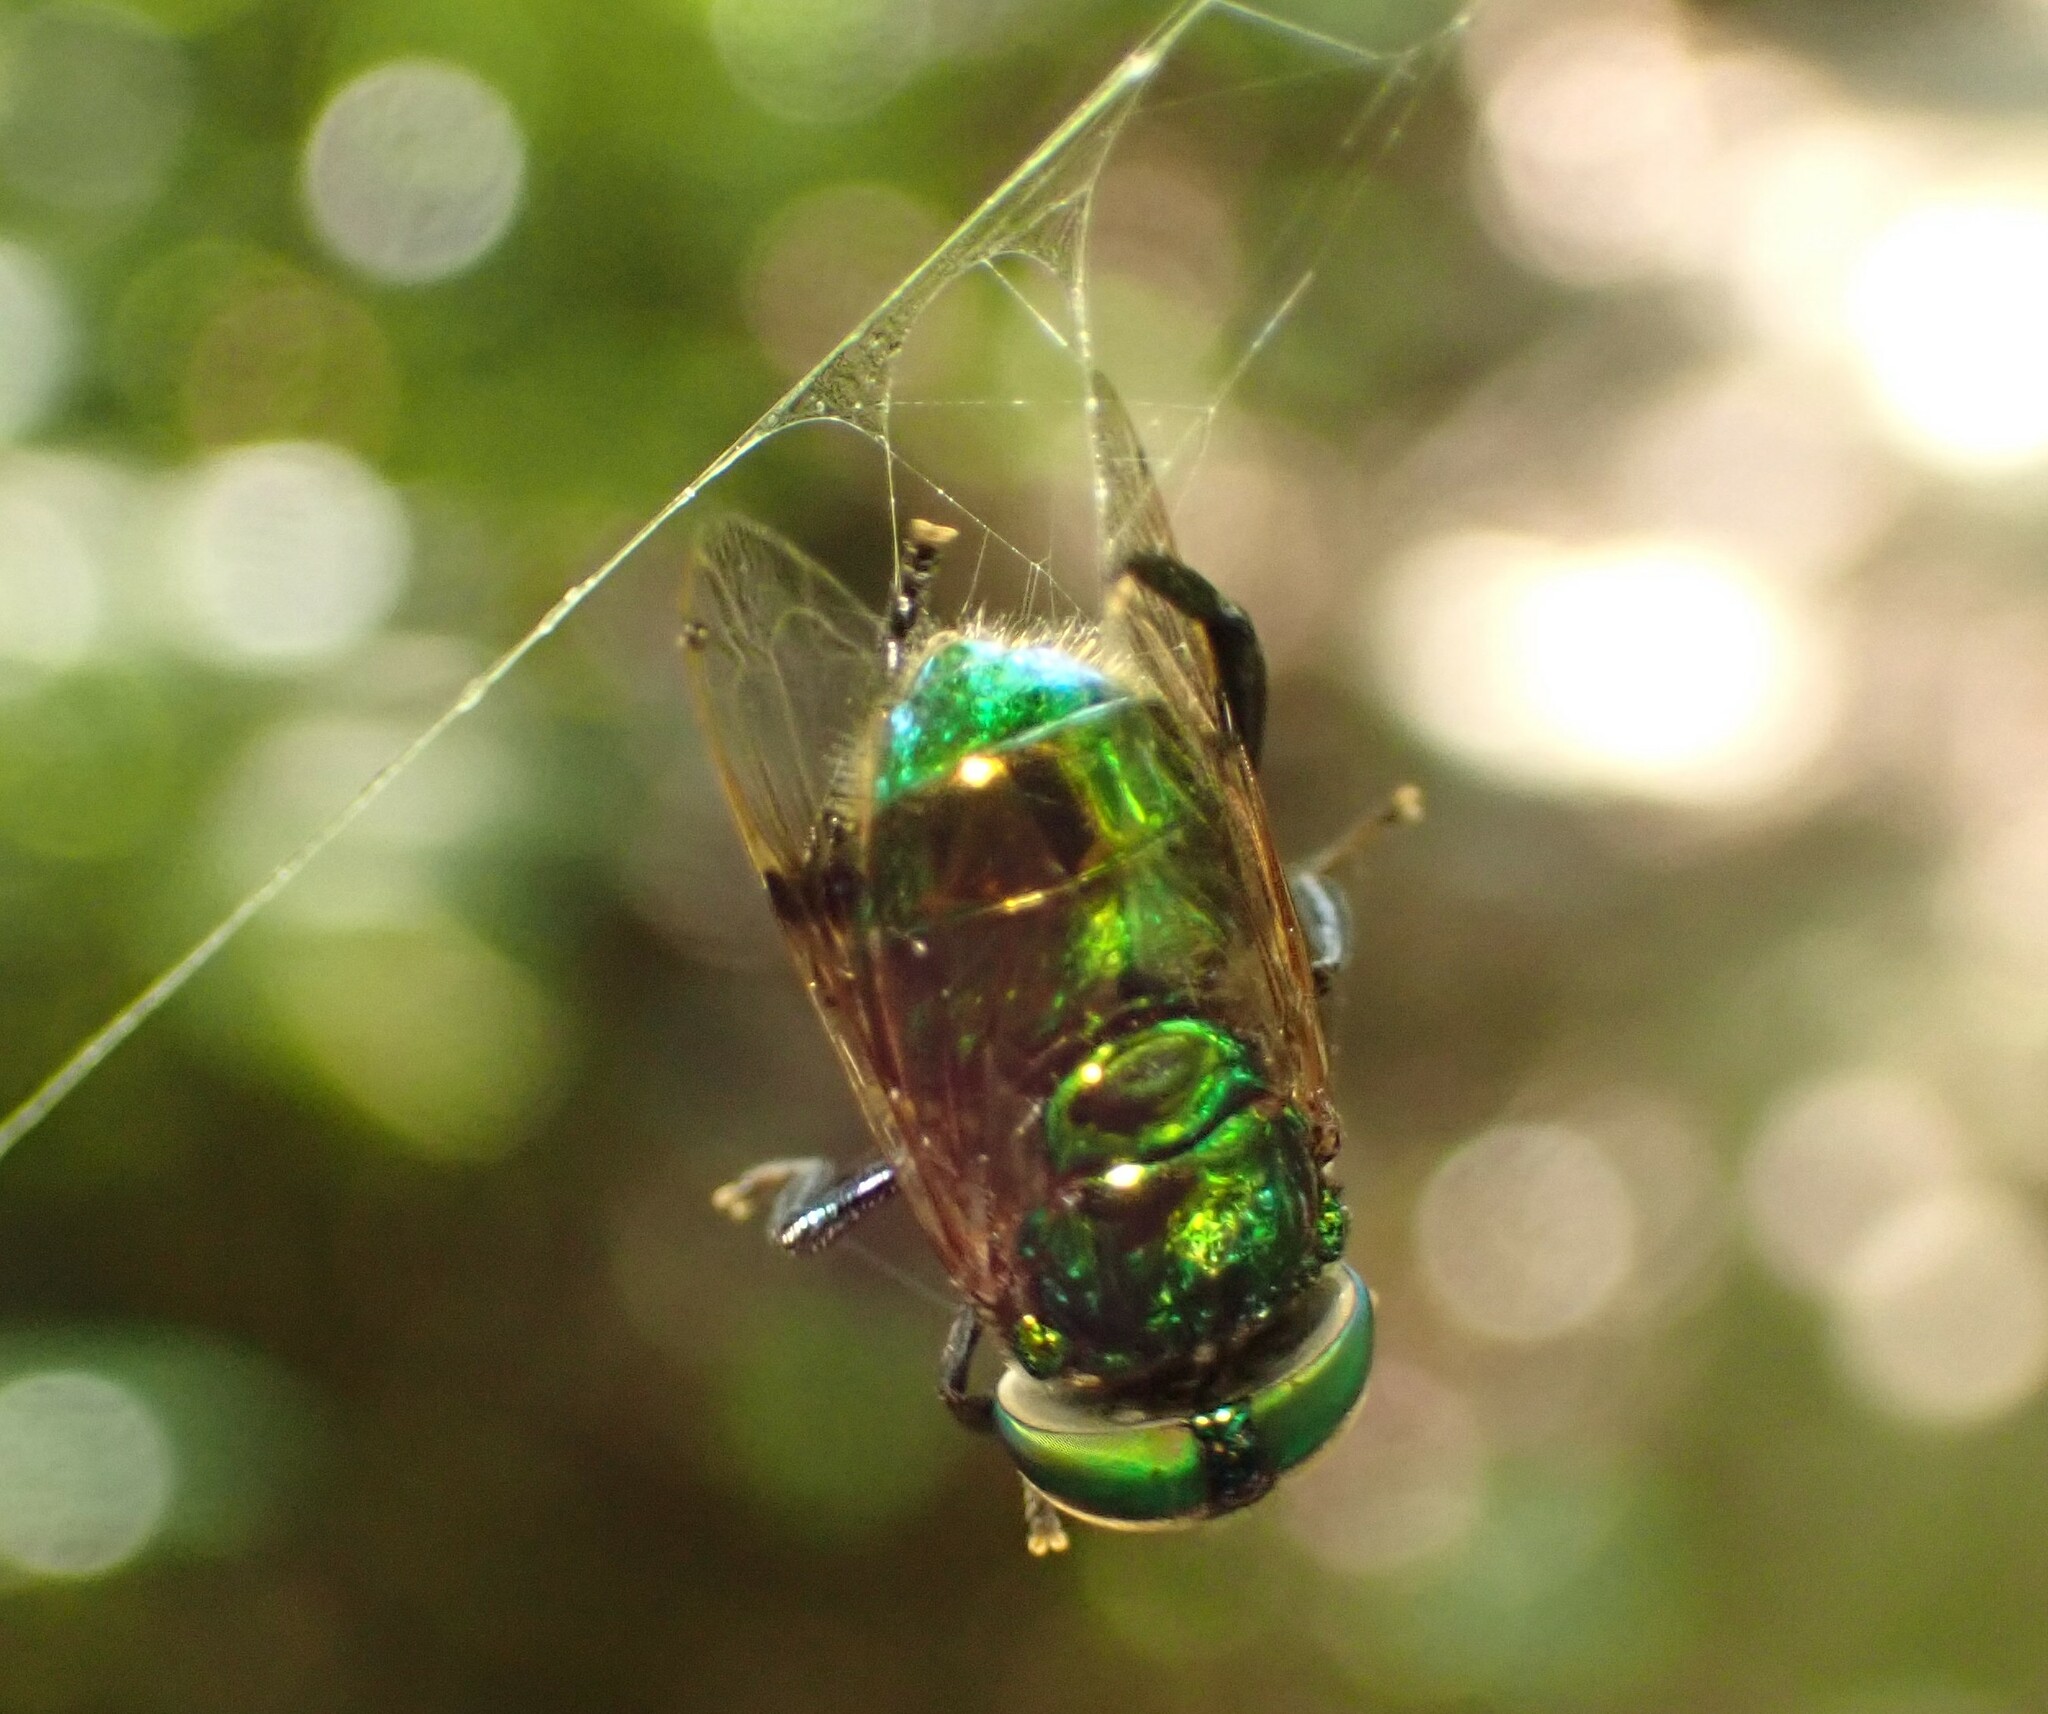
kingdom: Animalia
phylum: Arthropoda
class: Insecta
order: Diptera
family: Syrphidae
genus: Ornidia
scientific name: Ornidia obesa
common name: Syrphid fly
